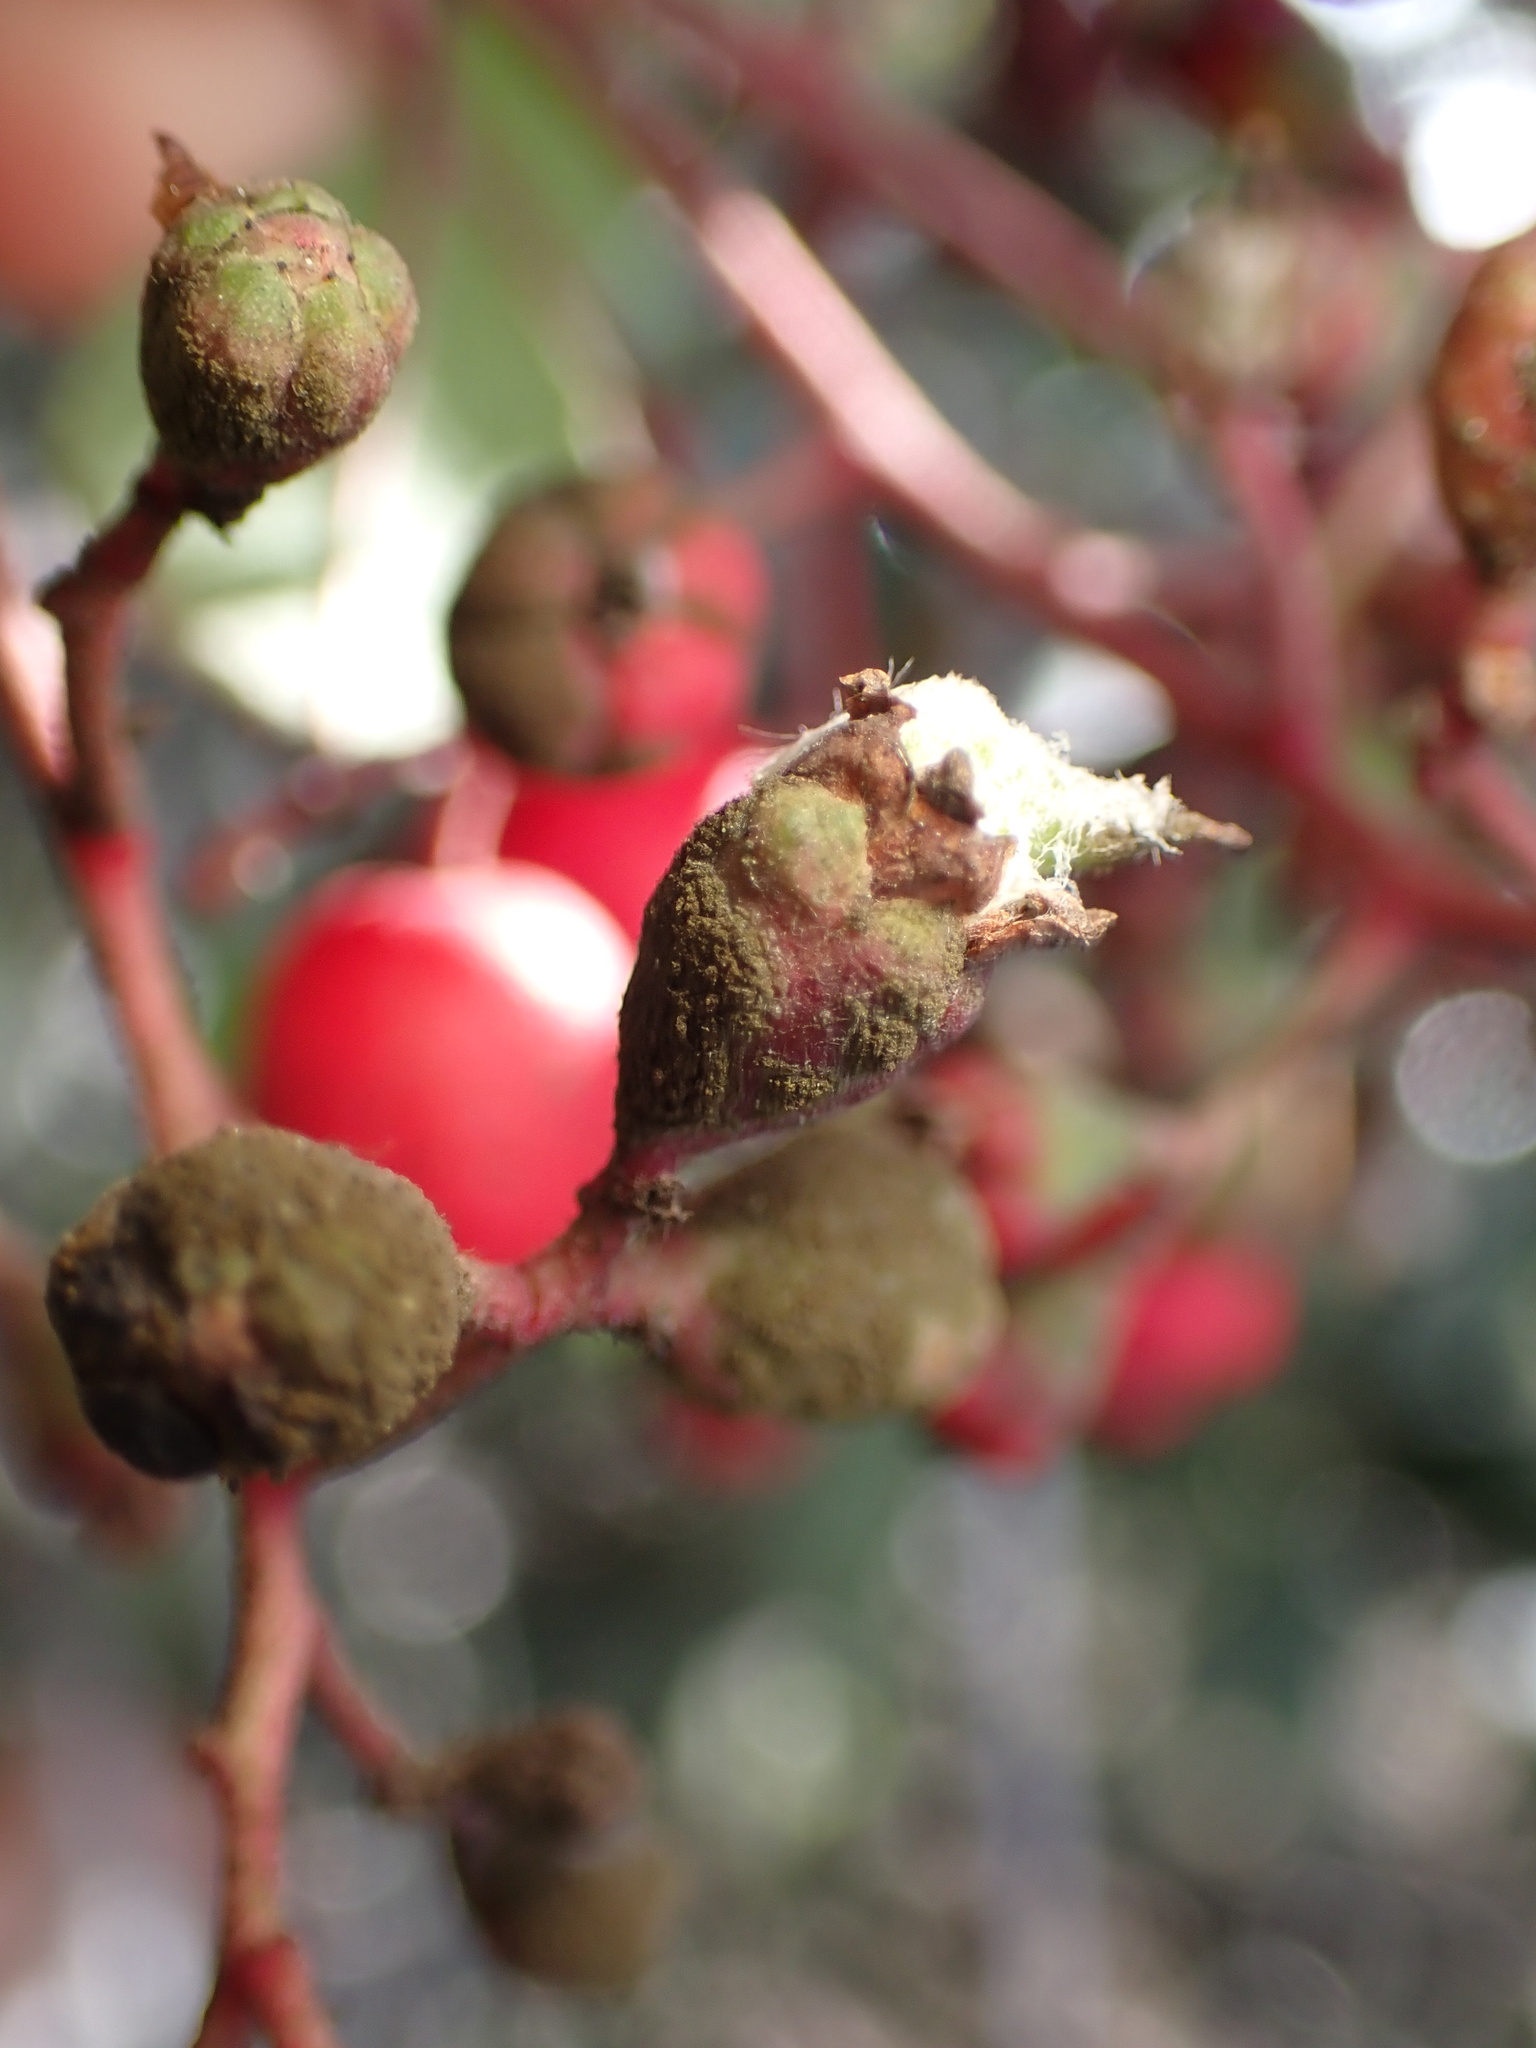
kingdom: Animalia
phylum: Arthropoda
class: Insecta
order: Diptera
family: Cecidomyiidae
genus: Asphondylia
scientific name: Asphondylia photiniae
